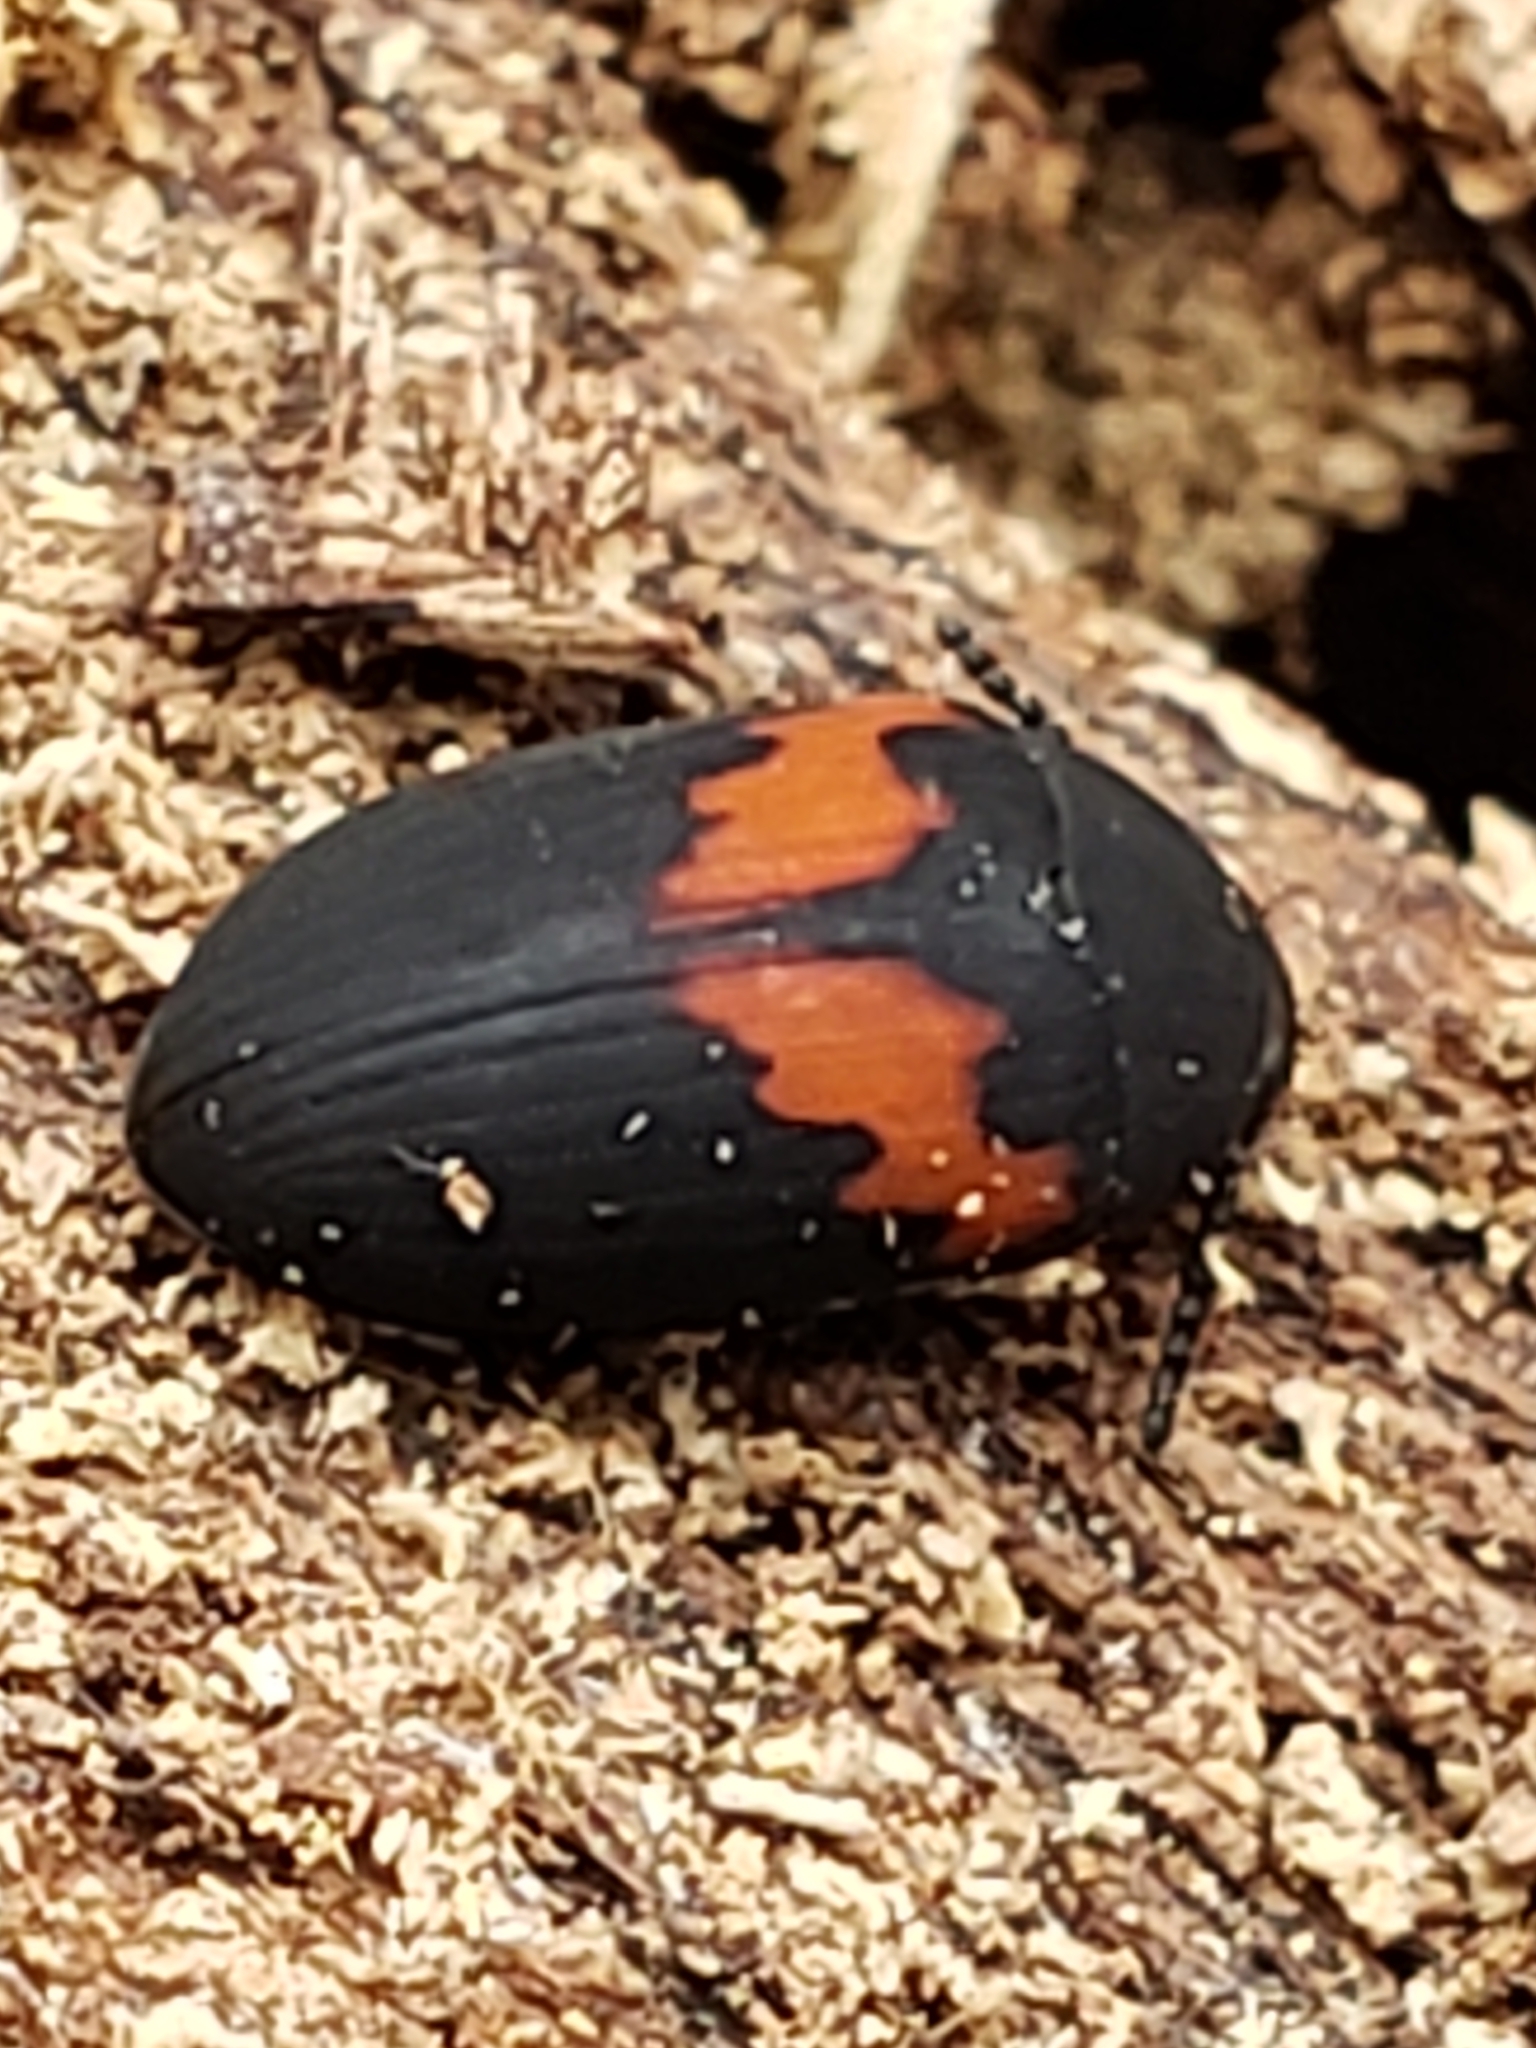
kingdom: Animalia
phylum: Arthropoda
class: Insecta
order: Coleoptera
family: Tenebrionidae
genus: Platydema
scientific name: Platydema elliptica
